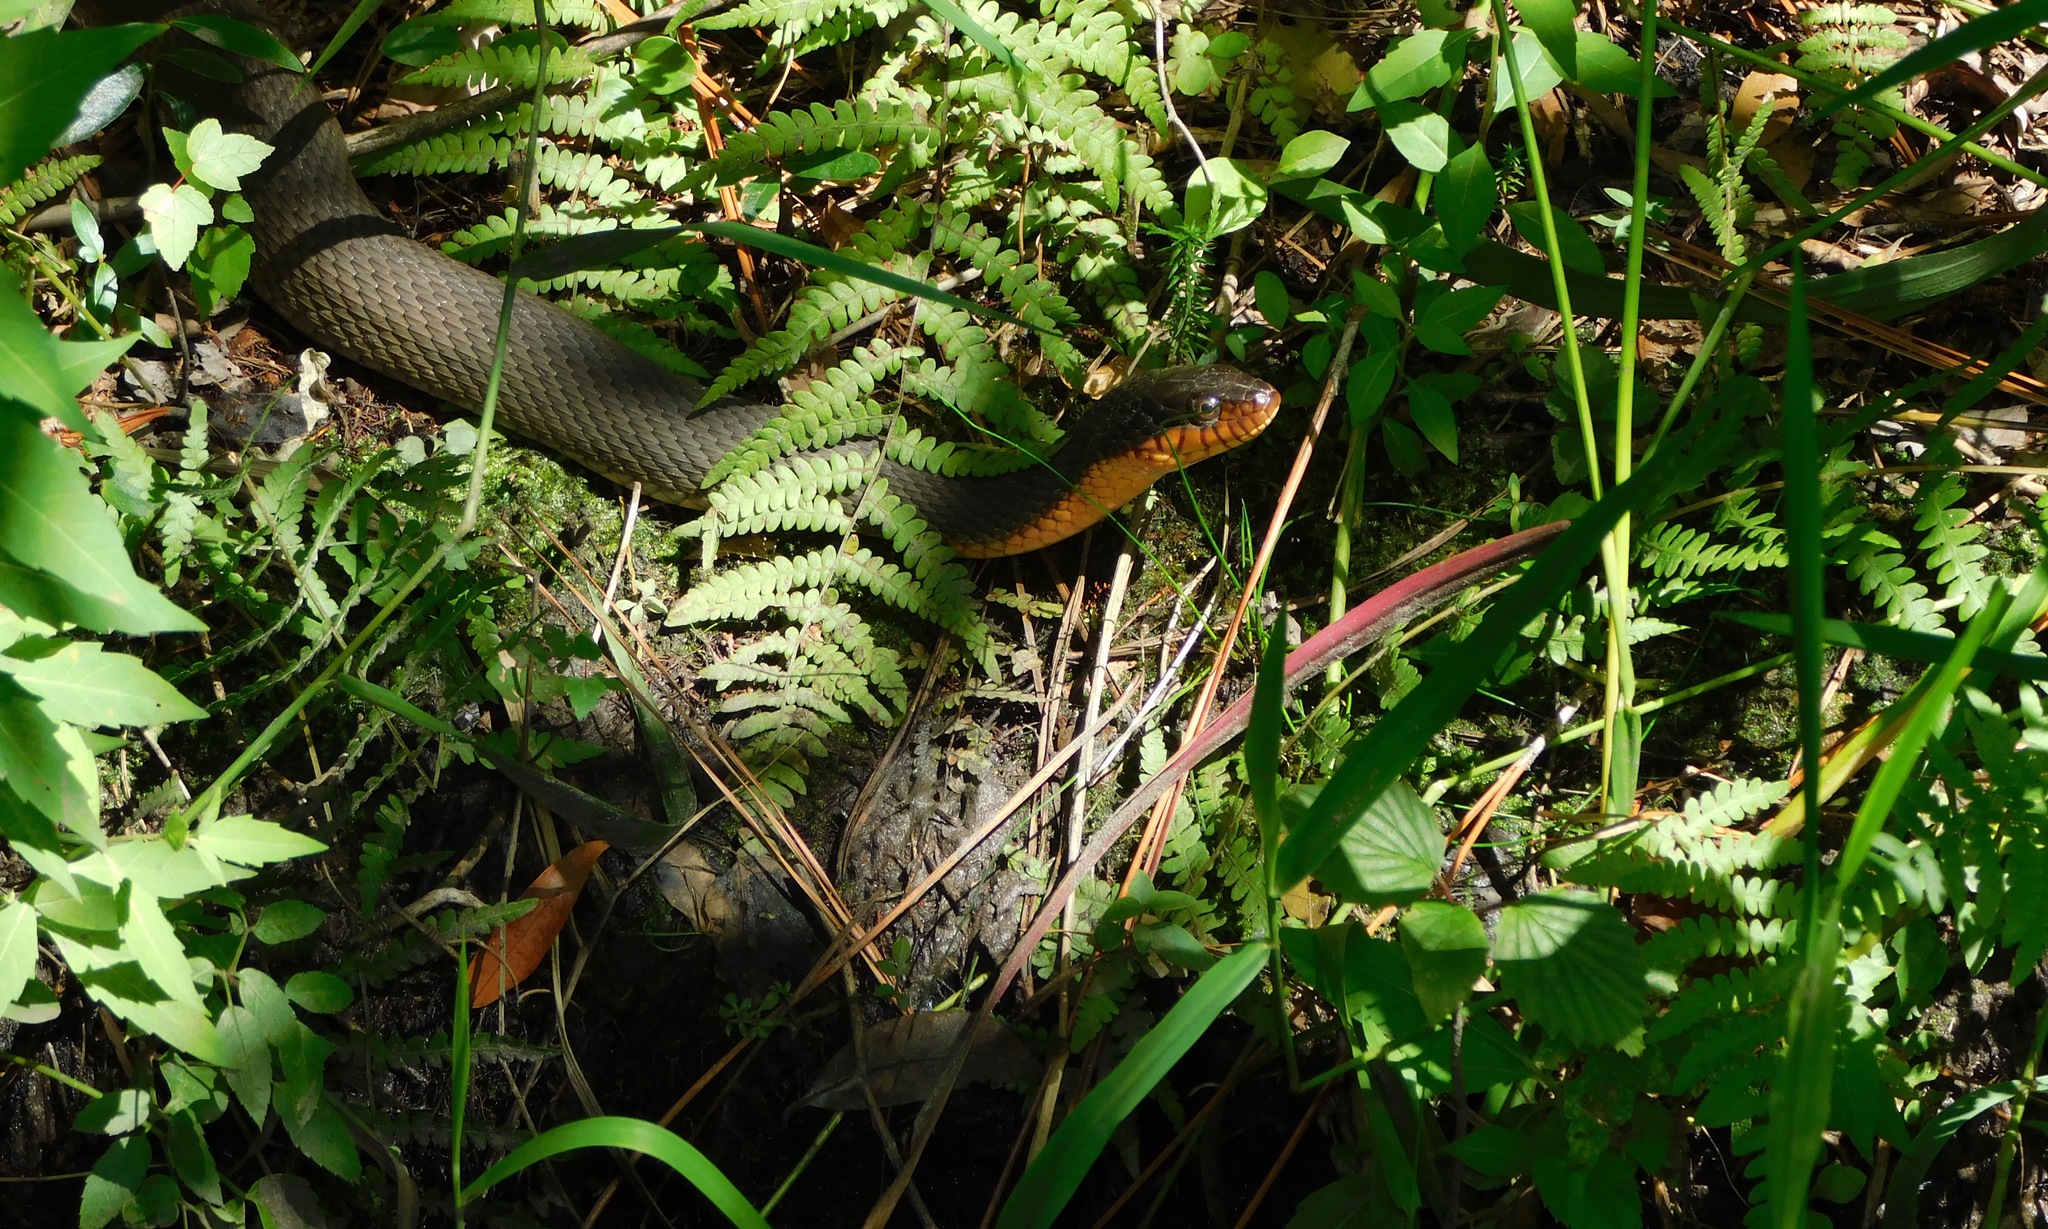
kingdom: Animalia
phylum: Chordata
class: Squamata
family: Colubridae
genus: Nerodia
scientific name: Nerodia erythrogaster
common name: Plainbelly water snake
